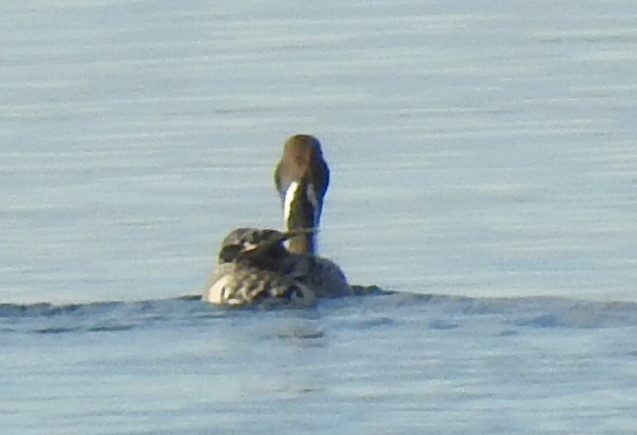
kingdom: Animalia
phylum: Chordata
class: Aves
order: Anseriformes
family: Anatidae
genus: Anas
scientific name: Anas acuta
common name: Northern pintail
